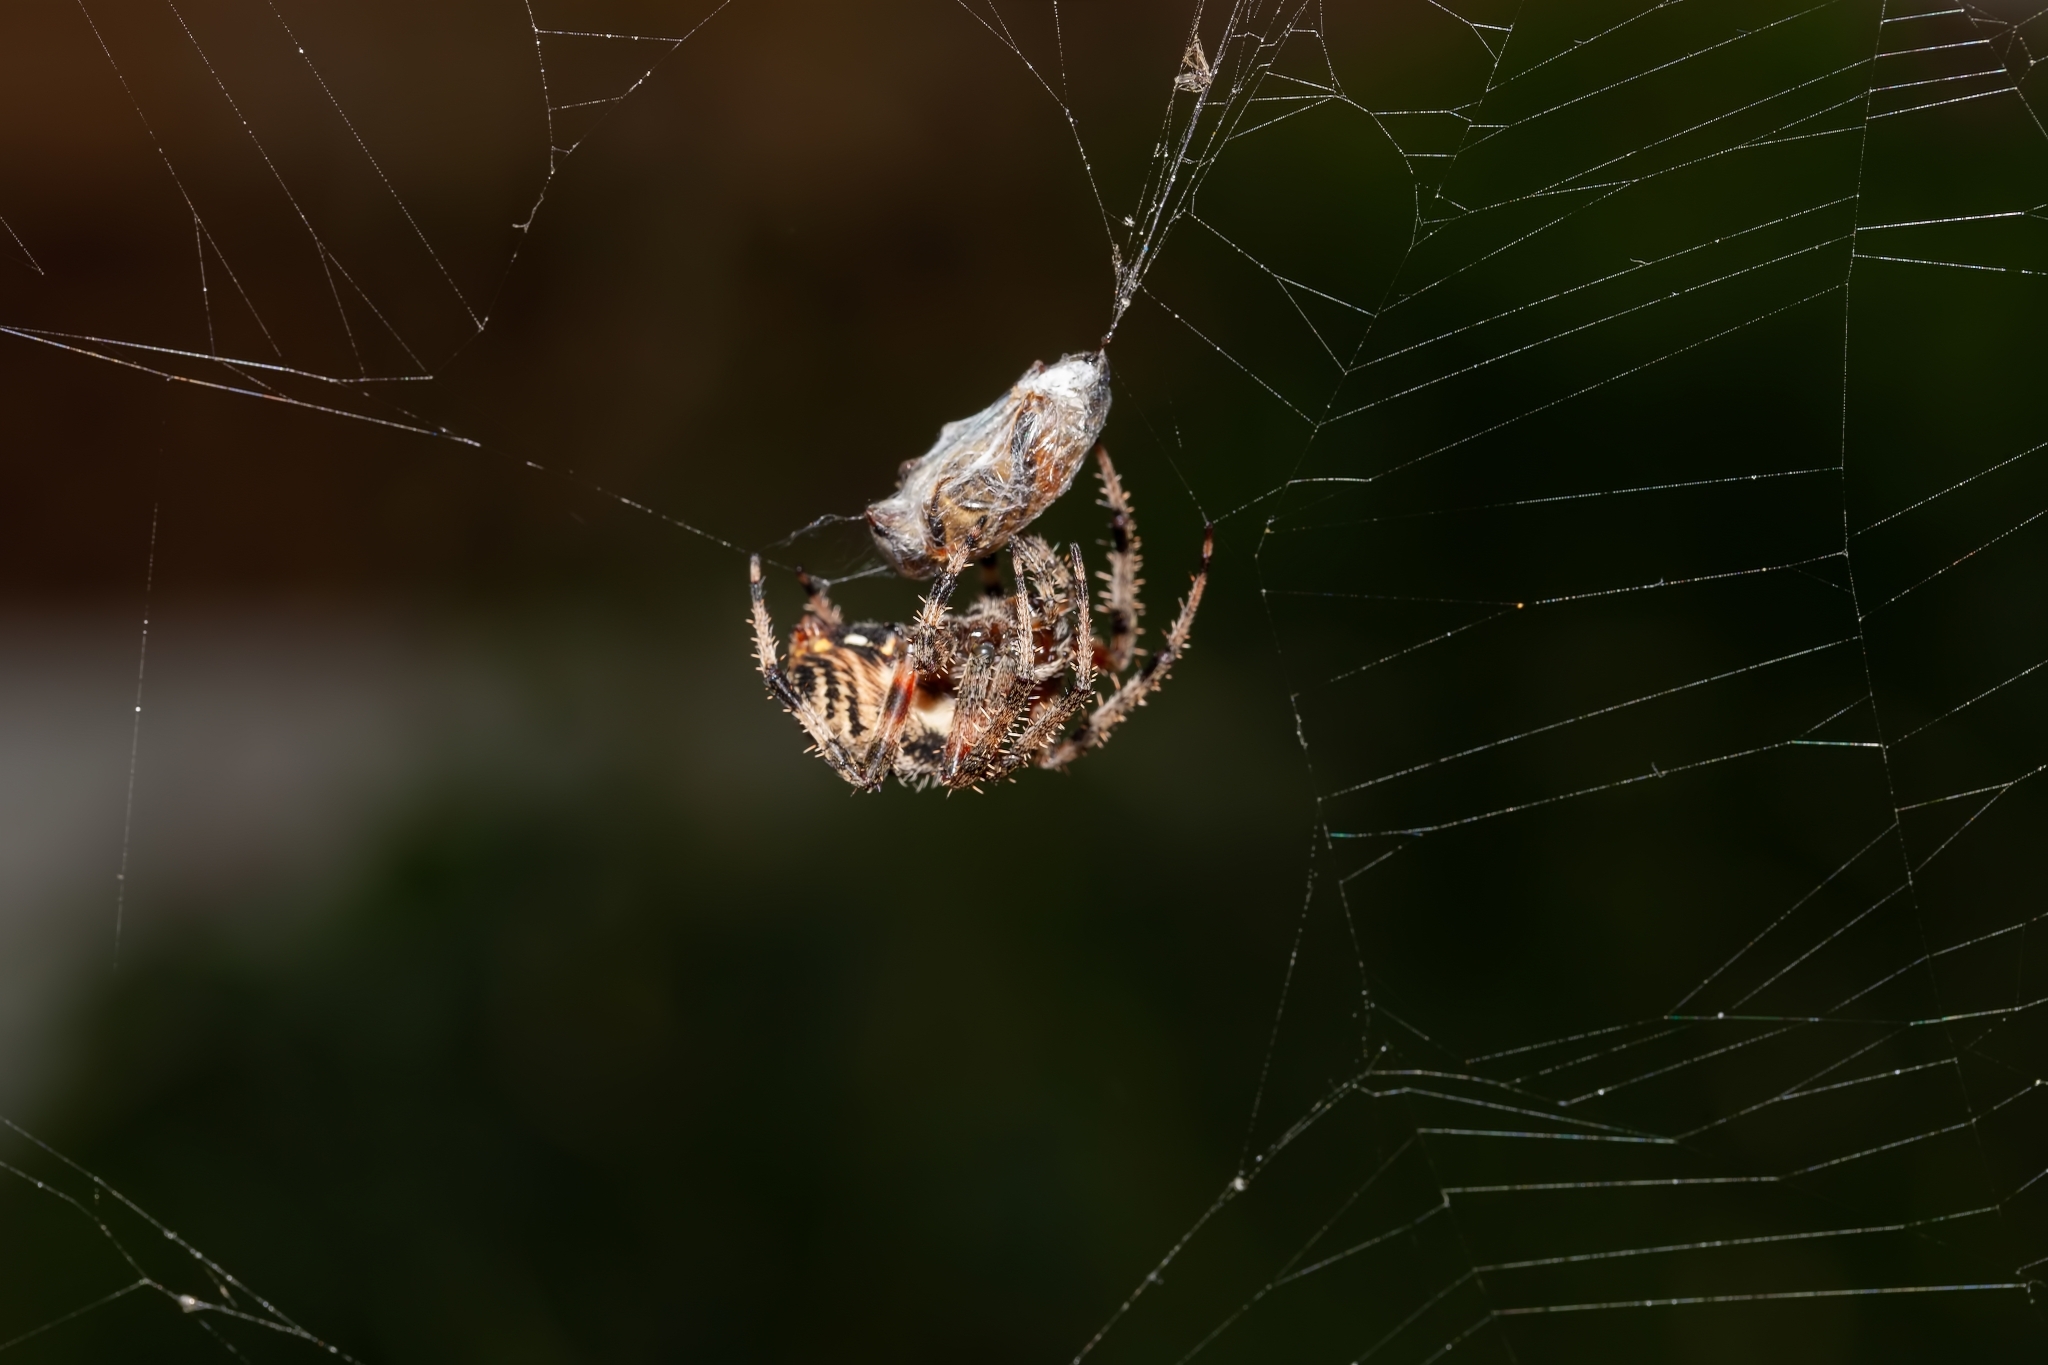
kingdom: Animalia
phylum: Arthropoda
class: Arachnida
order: Araneae
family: Araneidae
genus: Neoscona
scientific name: Neoscona crucifera
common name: Spotted orbweaver
